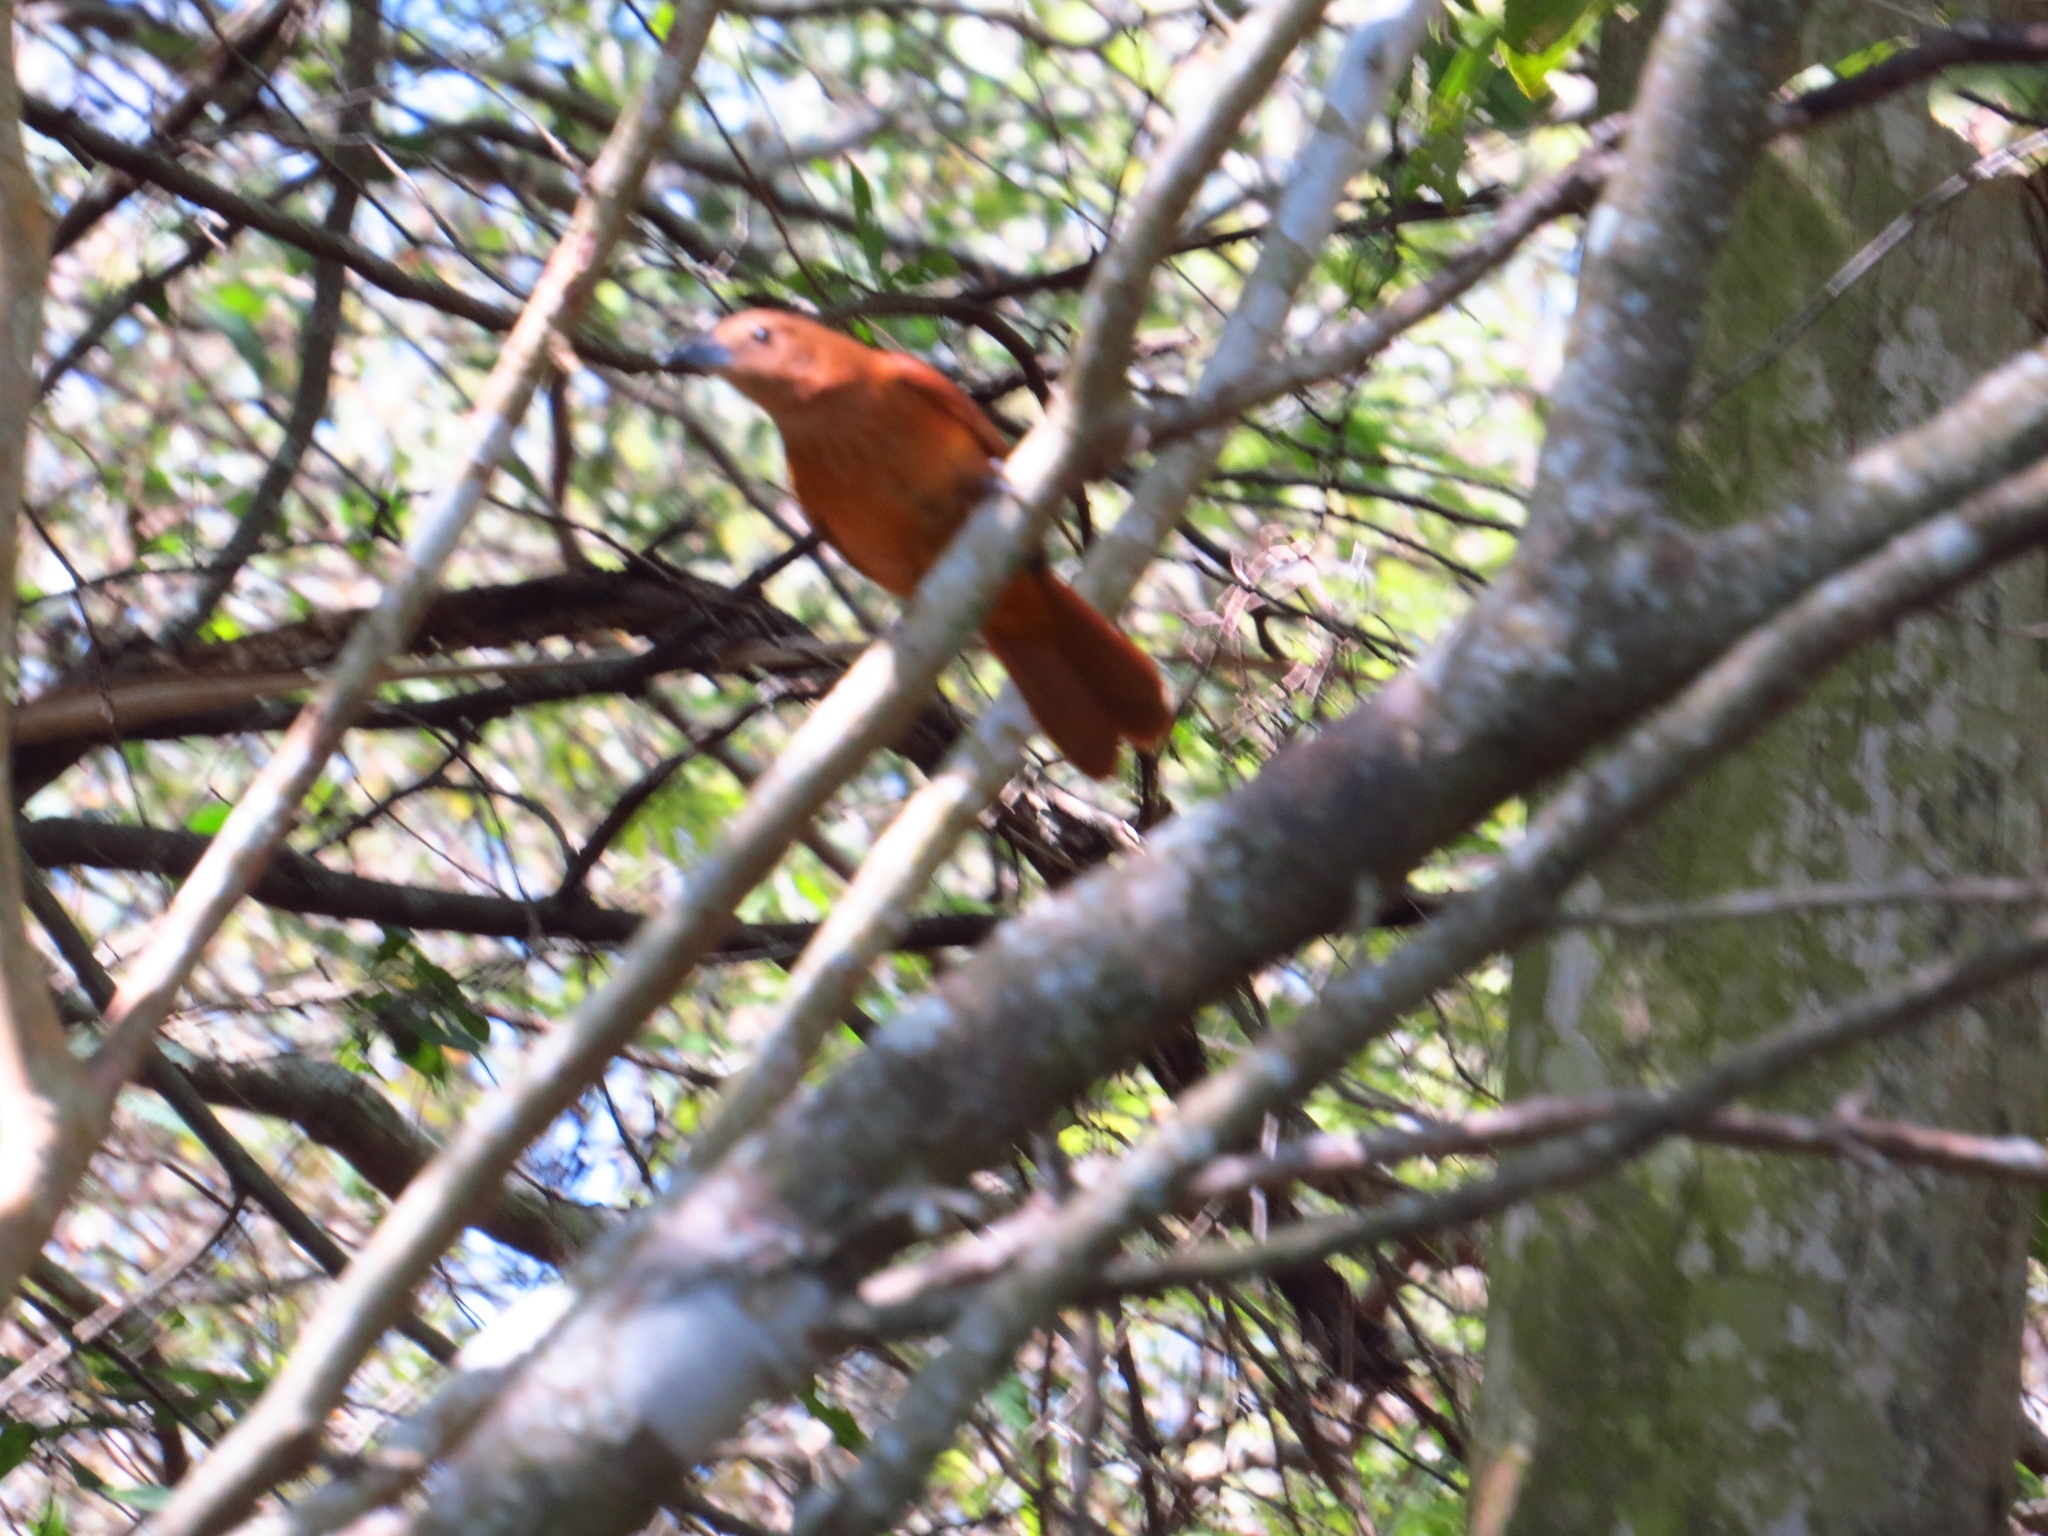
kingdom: Animalia
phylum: Chordata
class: Aves
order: Passeriformes
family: Cardinalidae
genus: Piranga
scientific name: Piranga flava
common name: Red tanager
